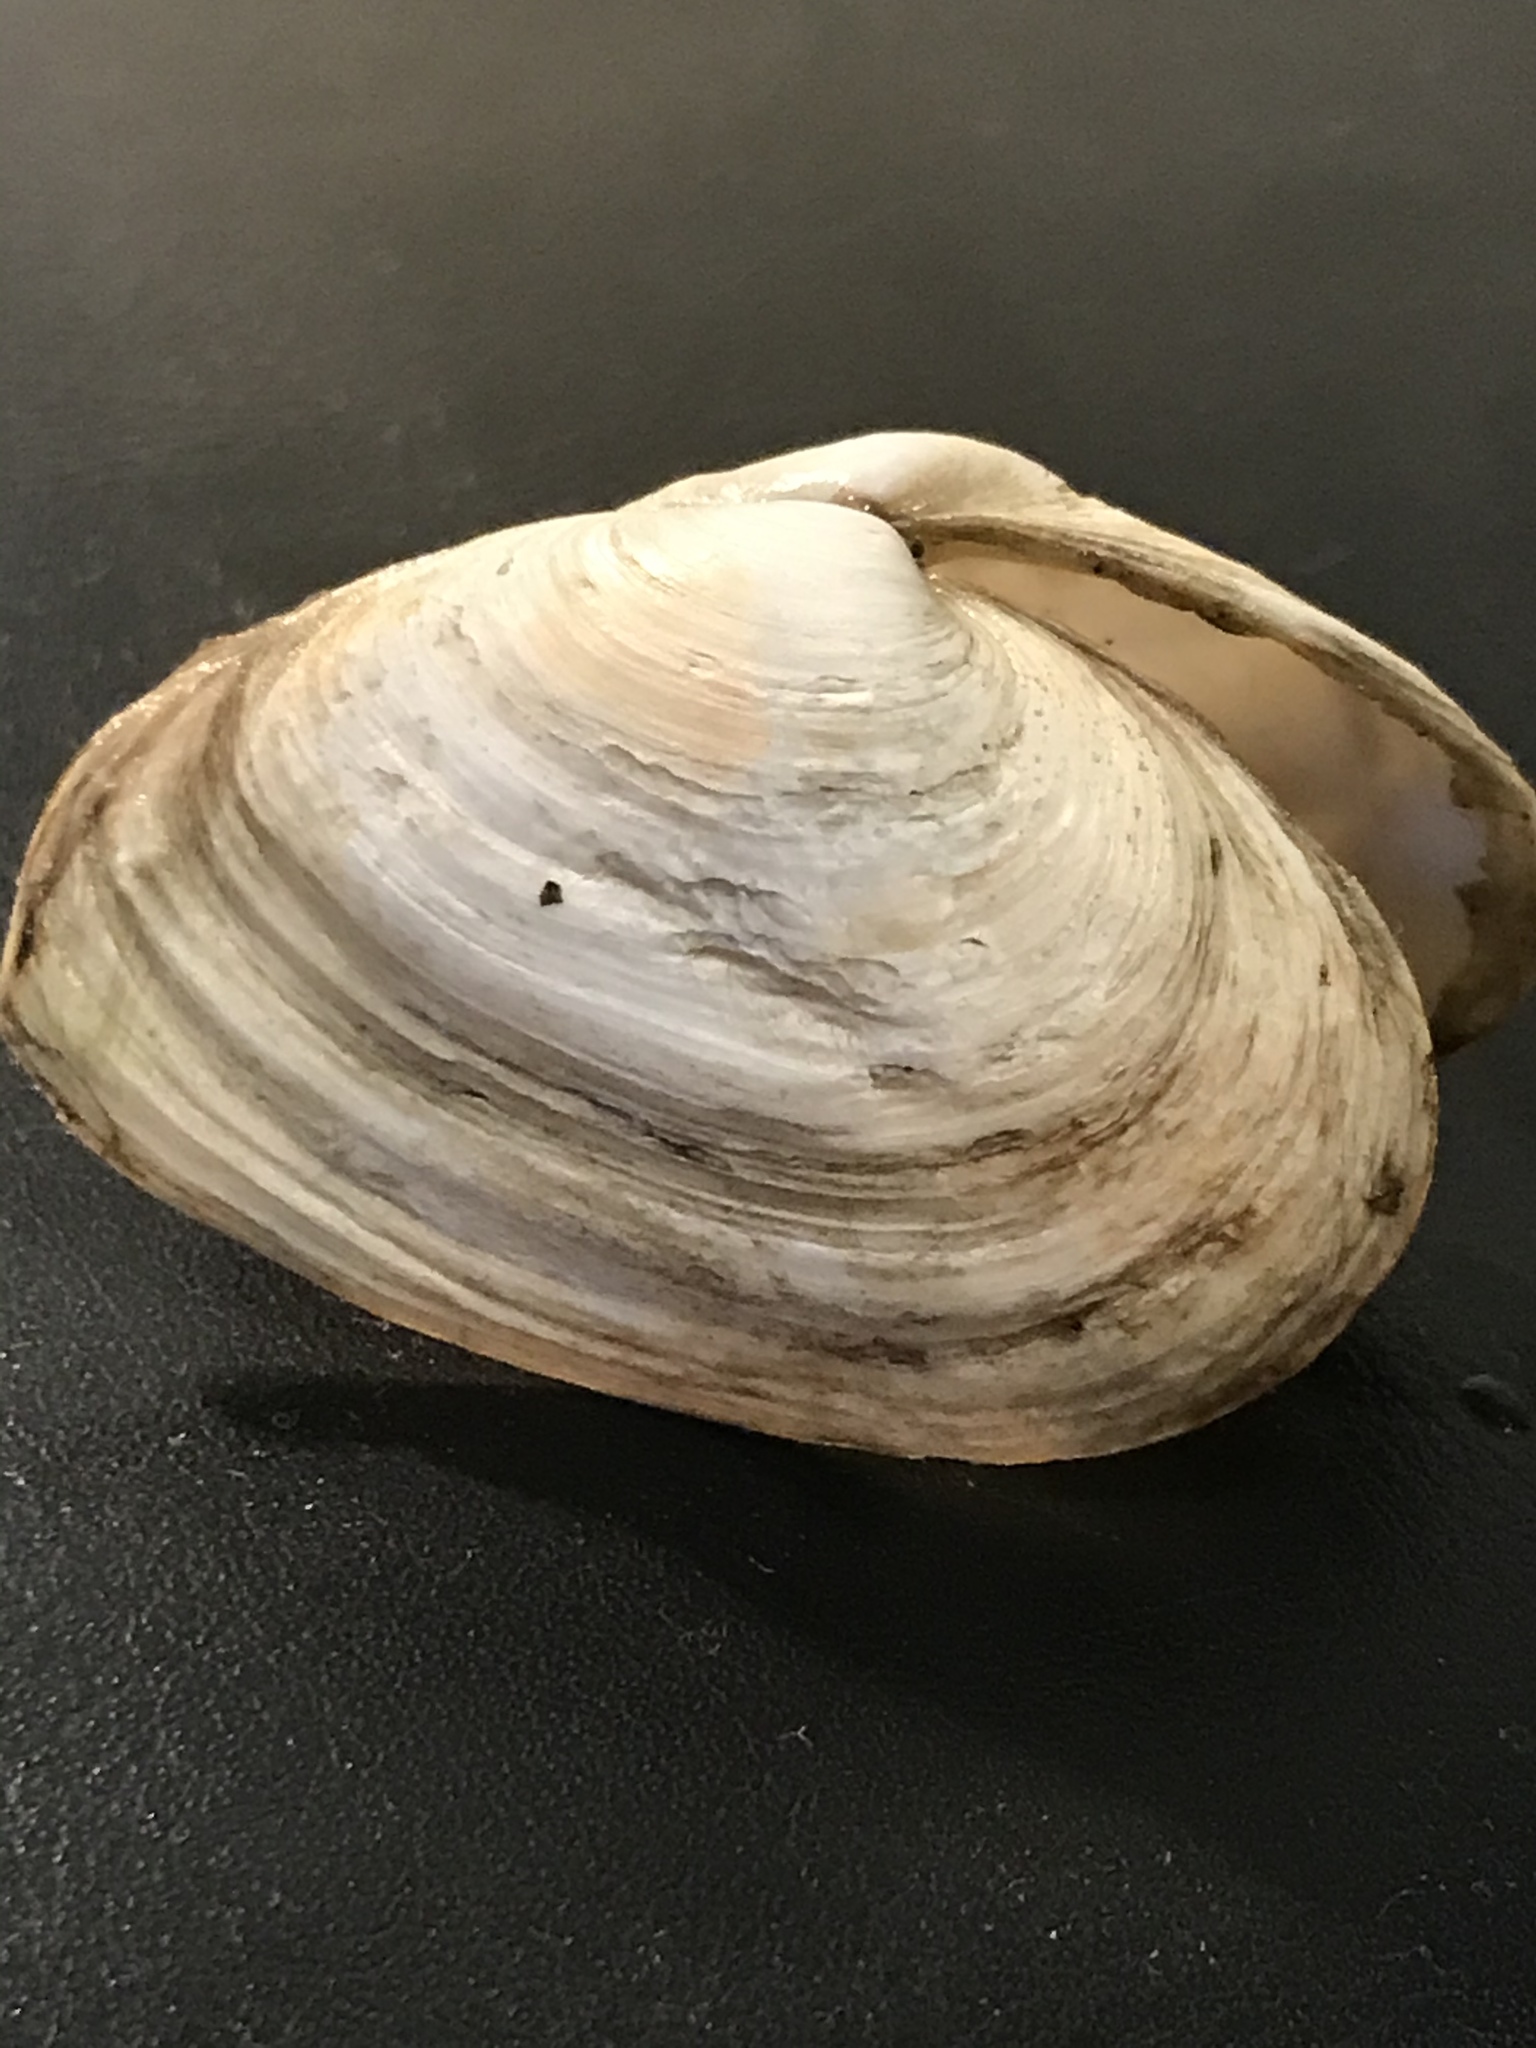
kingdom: Animalia
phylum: Mollusca
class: Bivalvia
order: Myida
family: Myidae
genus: Mya
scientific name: Mya arenaria
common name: Soft-shelled clam
